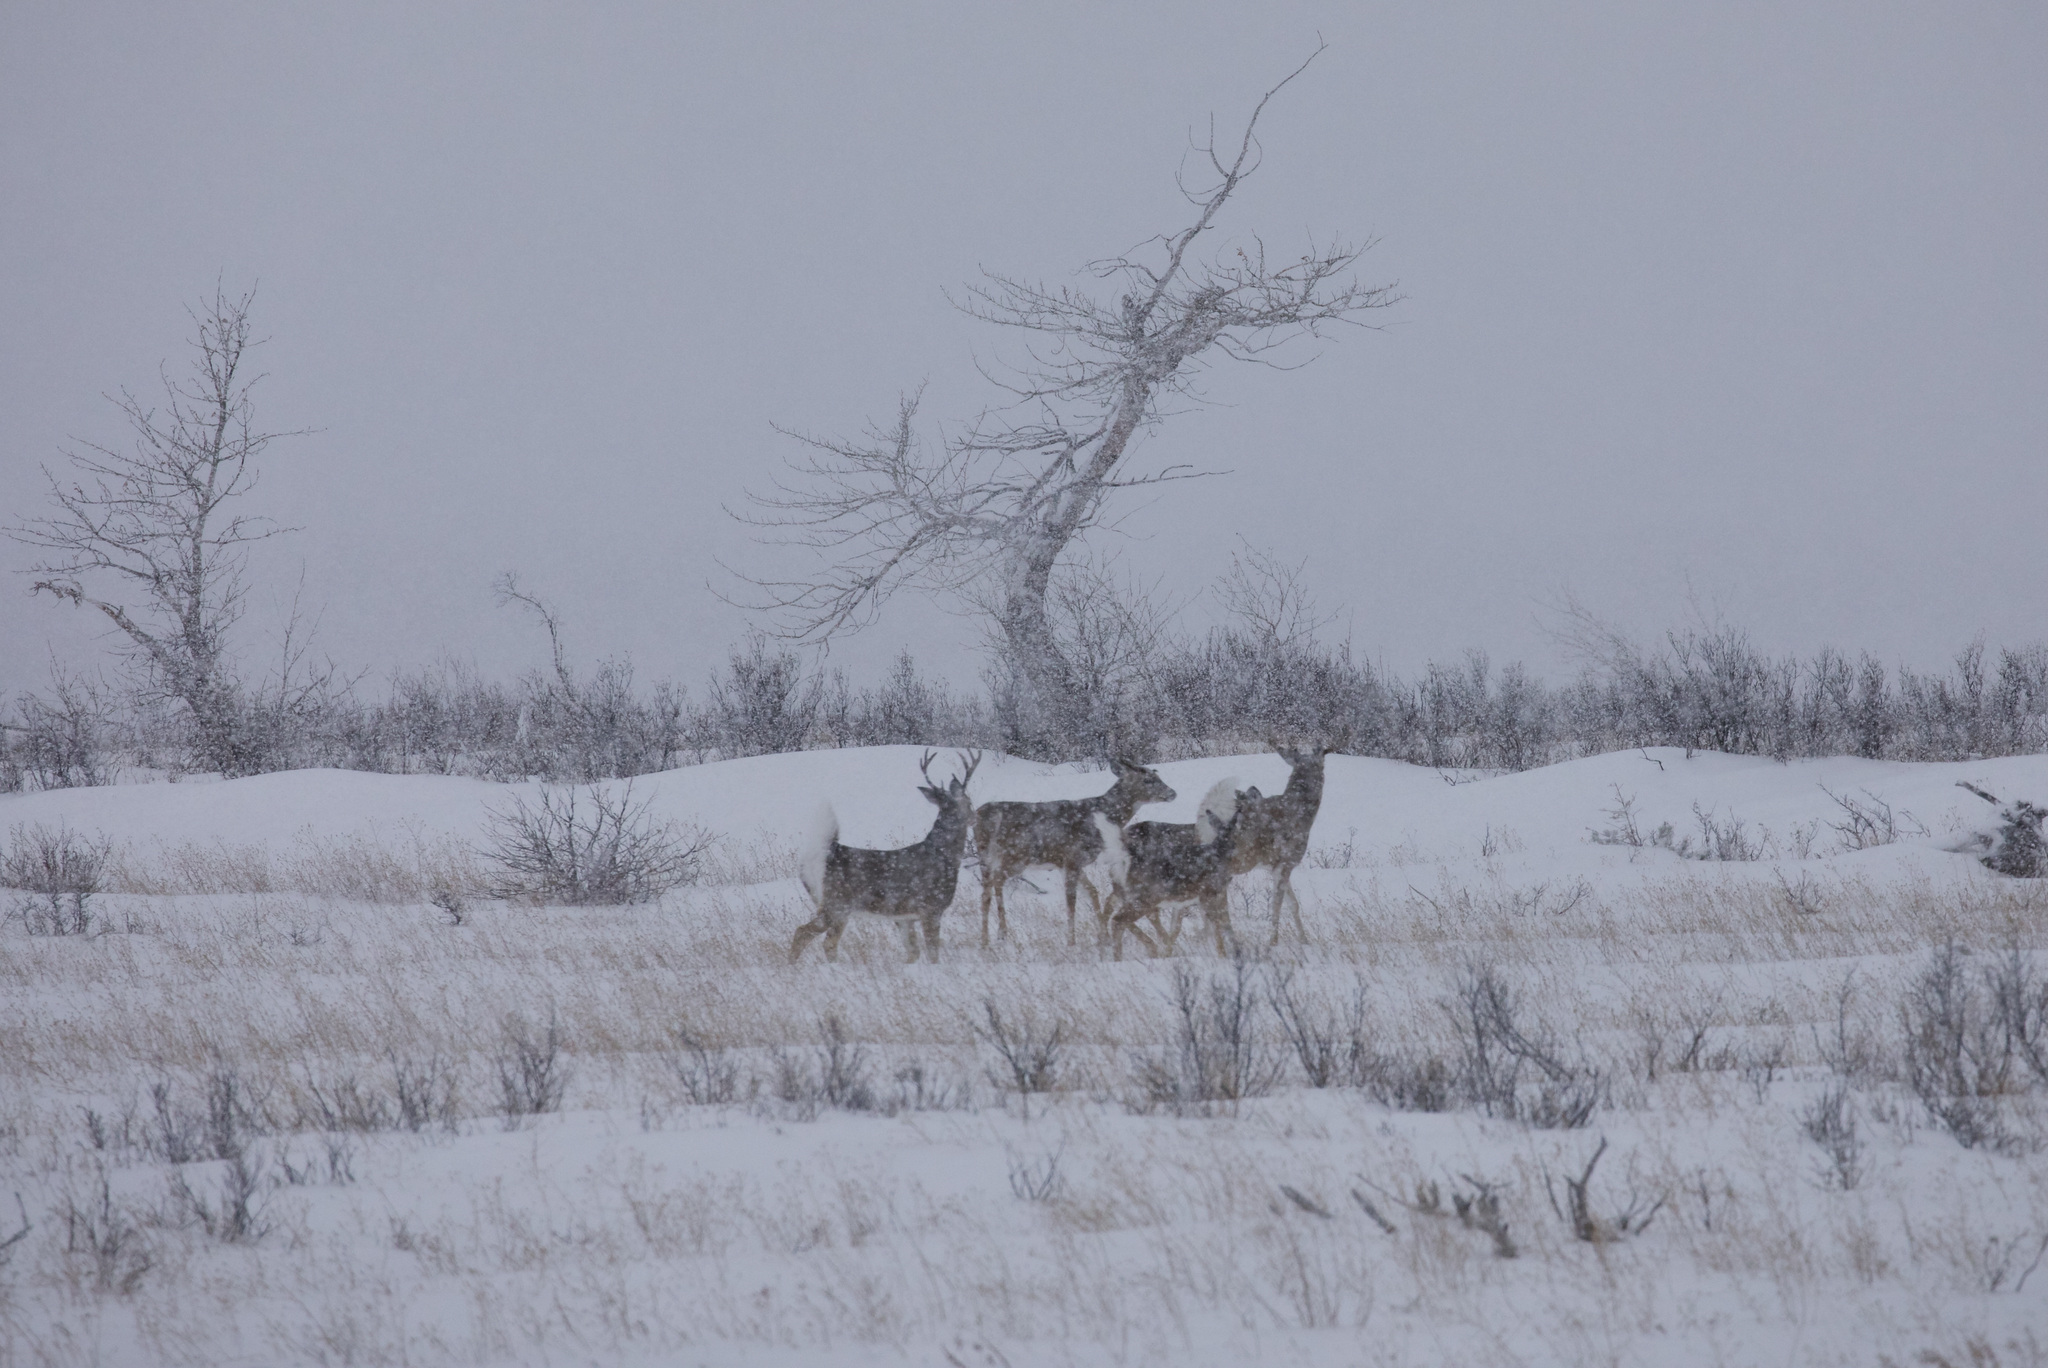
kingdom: Animalia
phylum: Chordata
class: Mammalia
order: Artiodactyla
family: Cervidae
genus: Odocoileus
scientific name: Odocoileus virginianus
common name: White-tailed deer
